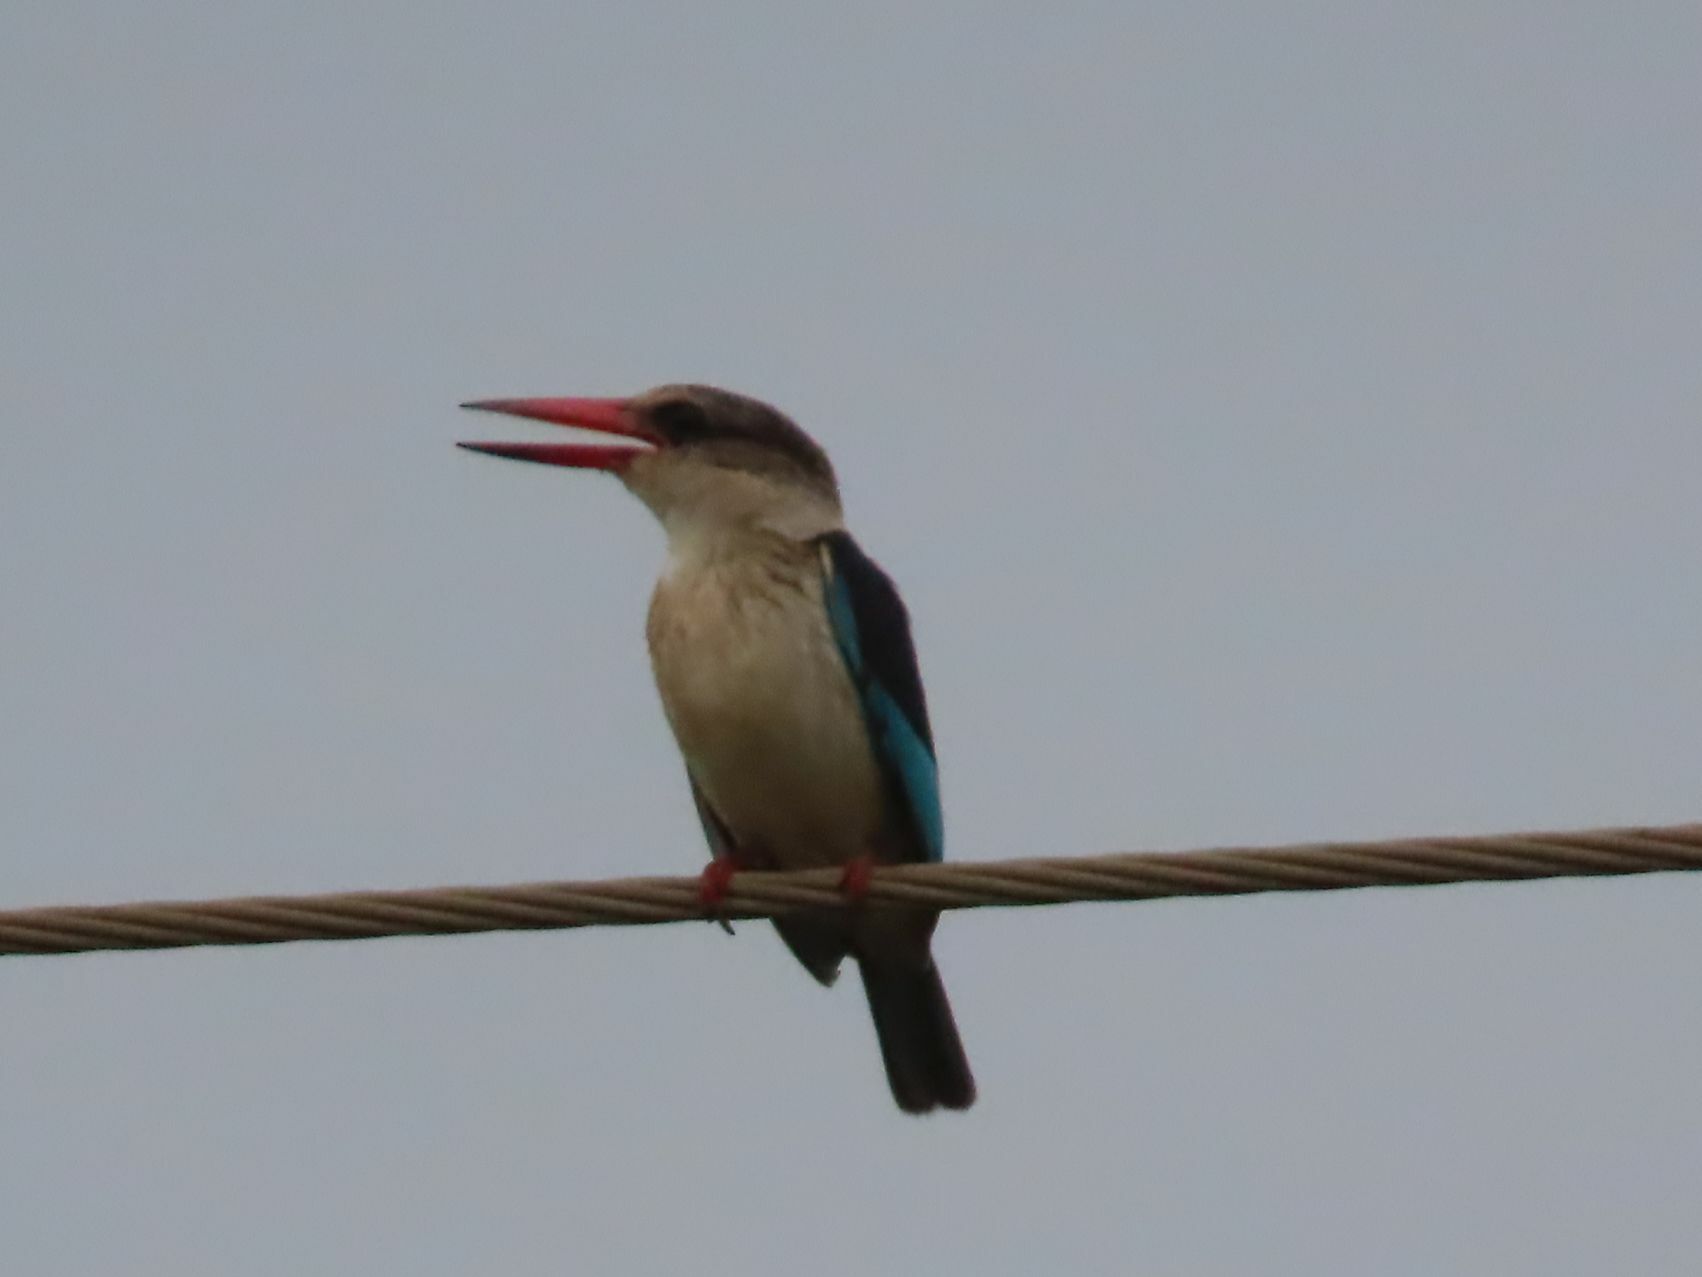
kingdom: Animalia
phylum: Chordata
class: Aves
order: Coraciiformes
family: Alcedinidae
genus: Halcyon
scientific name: Halcyon albiventris
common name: Brown-hooded kingfisher
